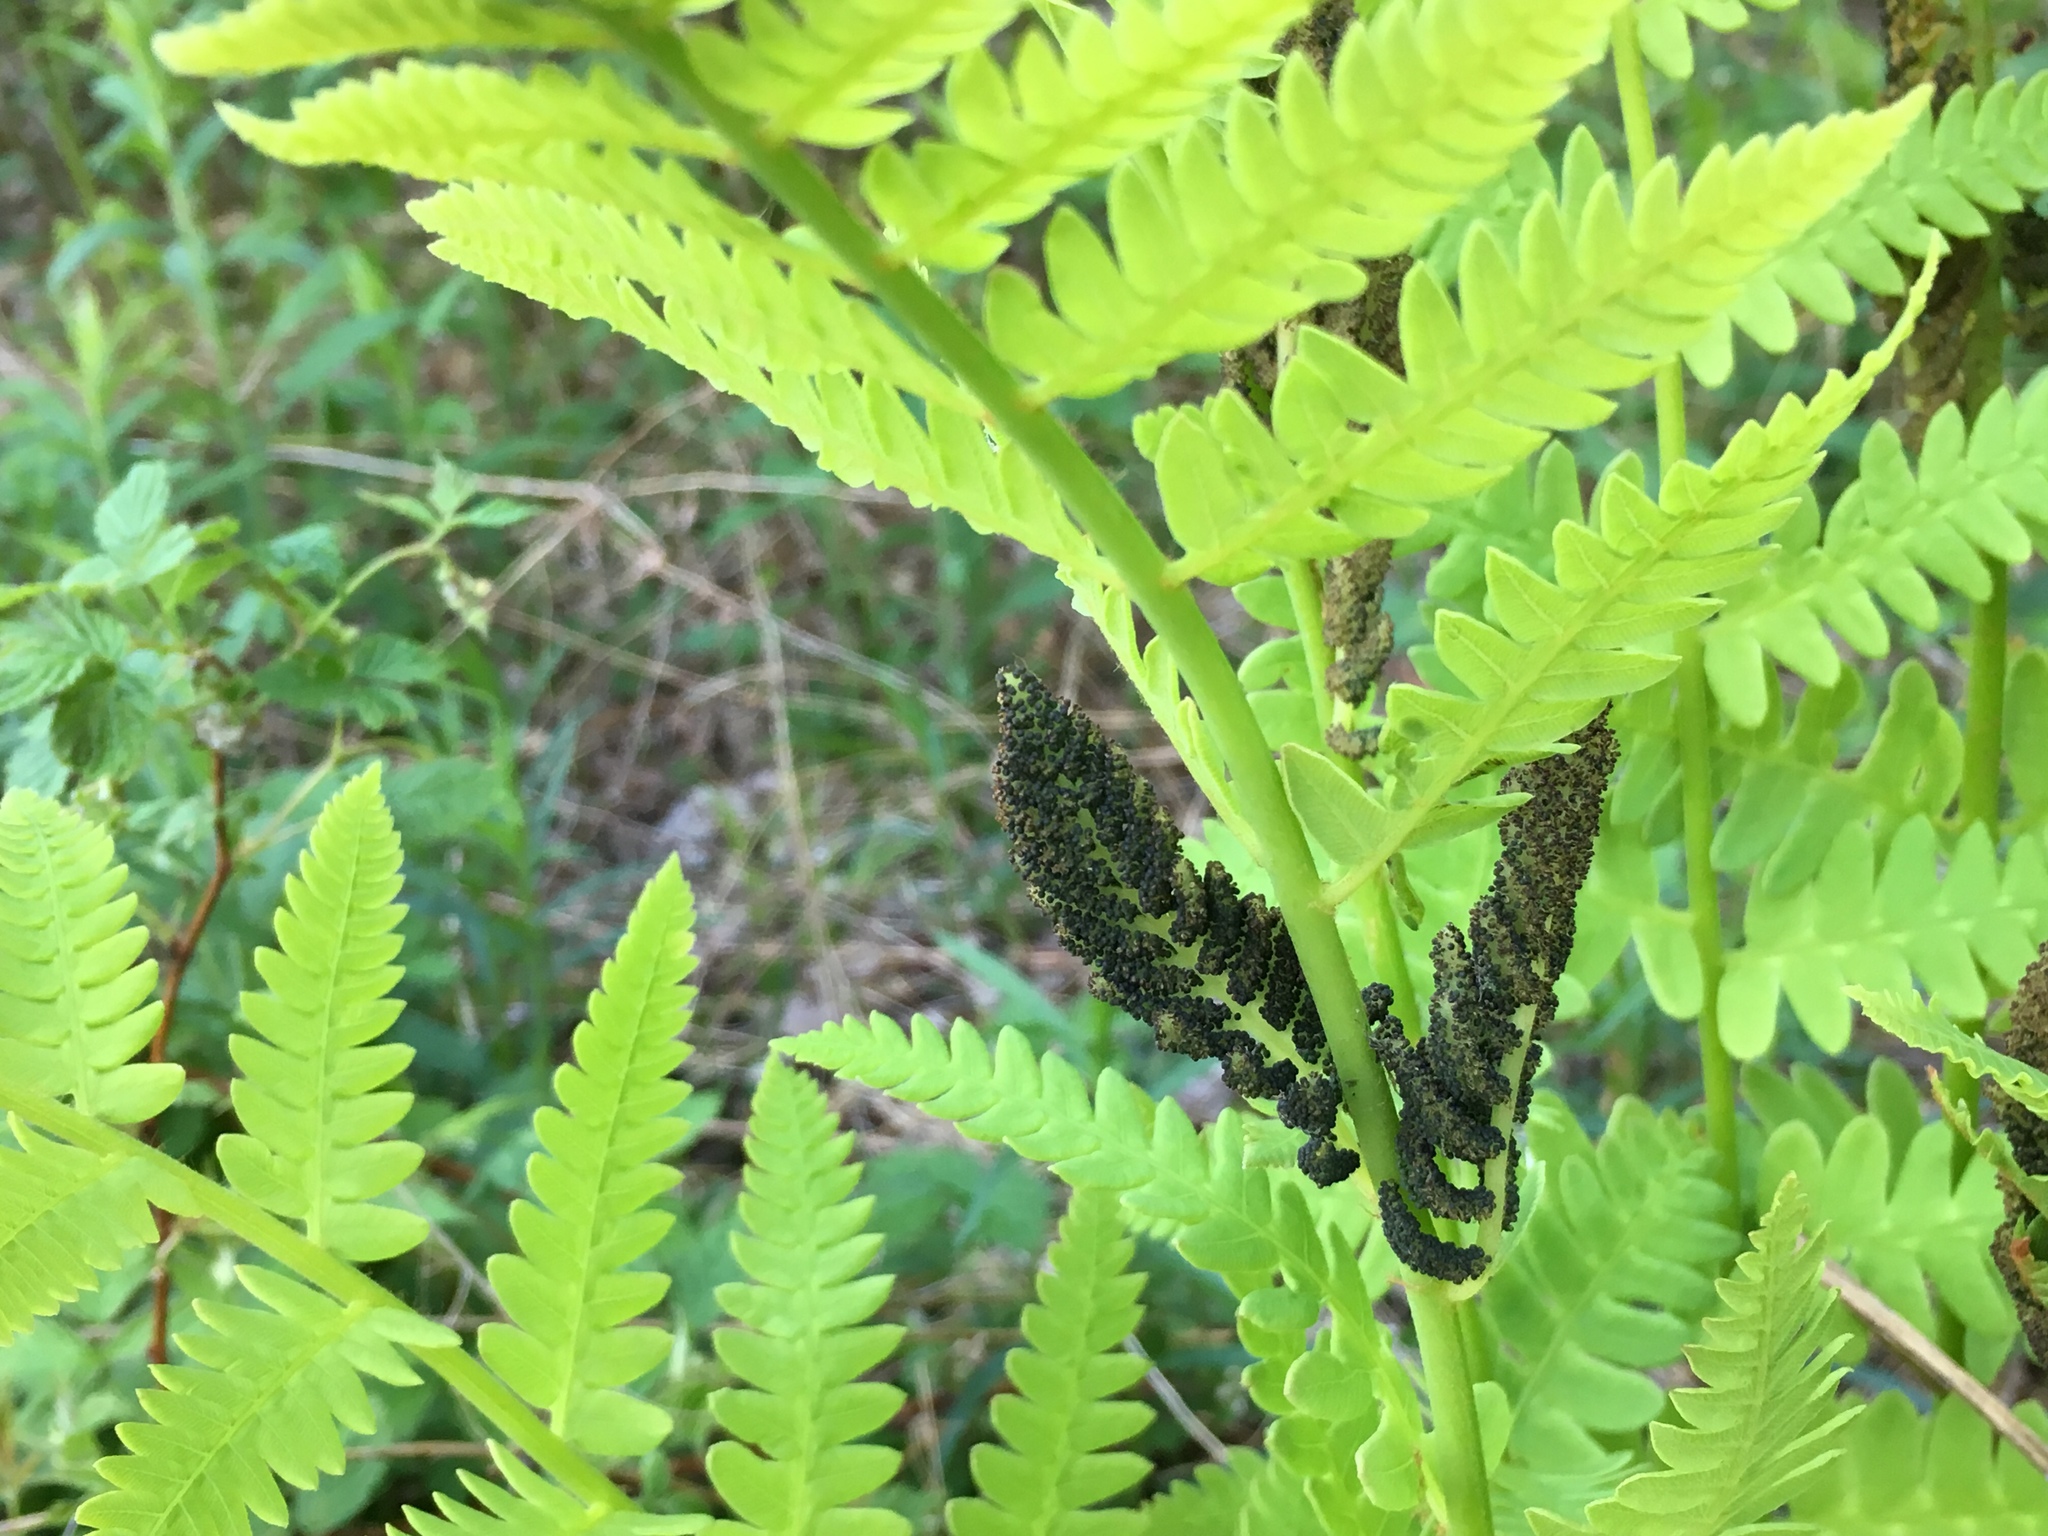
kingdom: Plantae
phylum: Tracheophyta
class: Polypodiopsida
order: Osmundales
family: Osmundaceae
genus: Claytosmunda
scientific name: Claytosmunda claytoniana
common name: Clayton's fern
